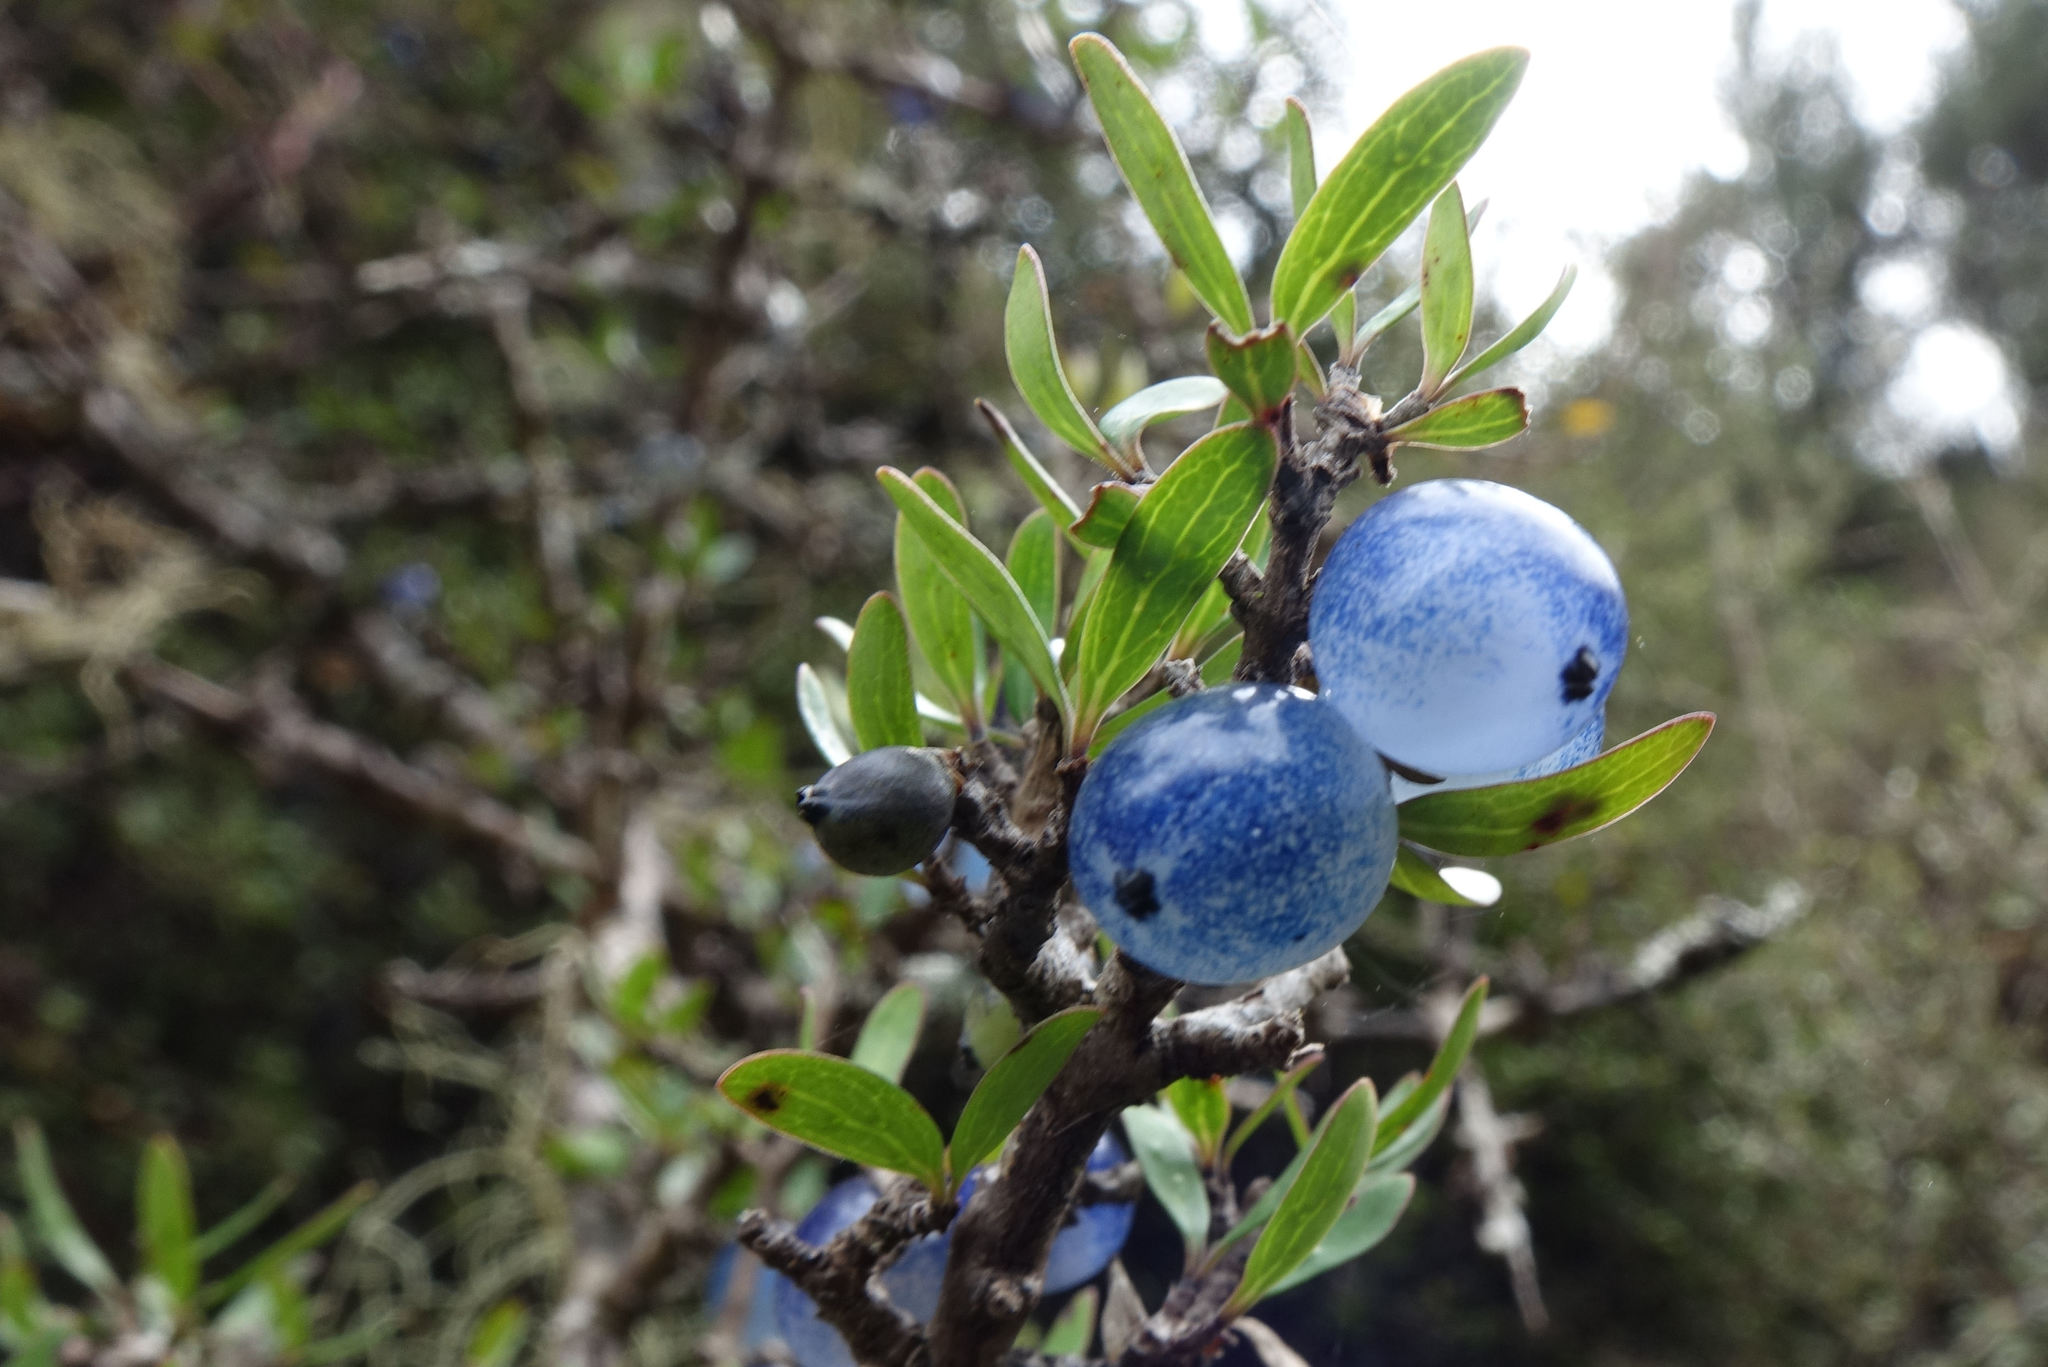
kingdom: Plantae
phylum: Tracheophyta
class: Magnoliopsida
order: Gentianales
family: Rubiaceae
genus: Coprosma
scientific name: Coprosma propinqua
